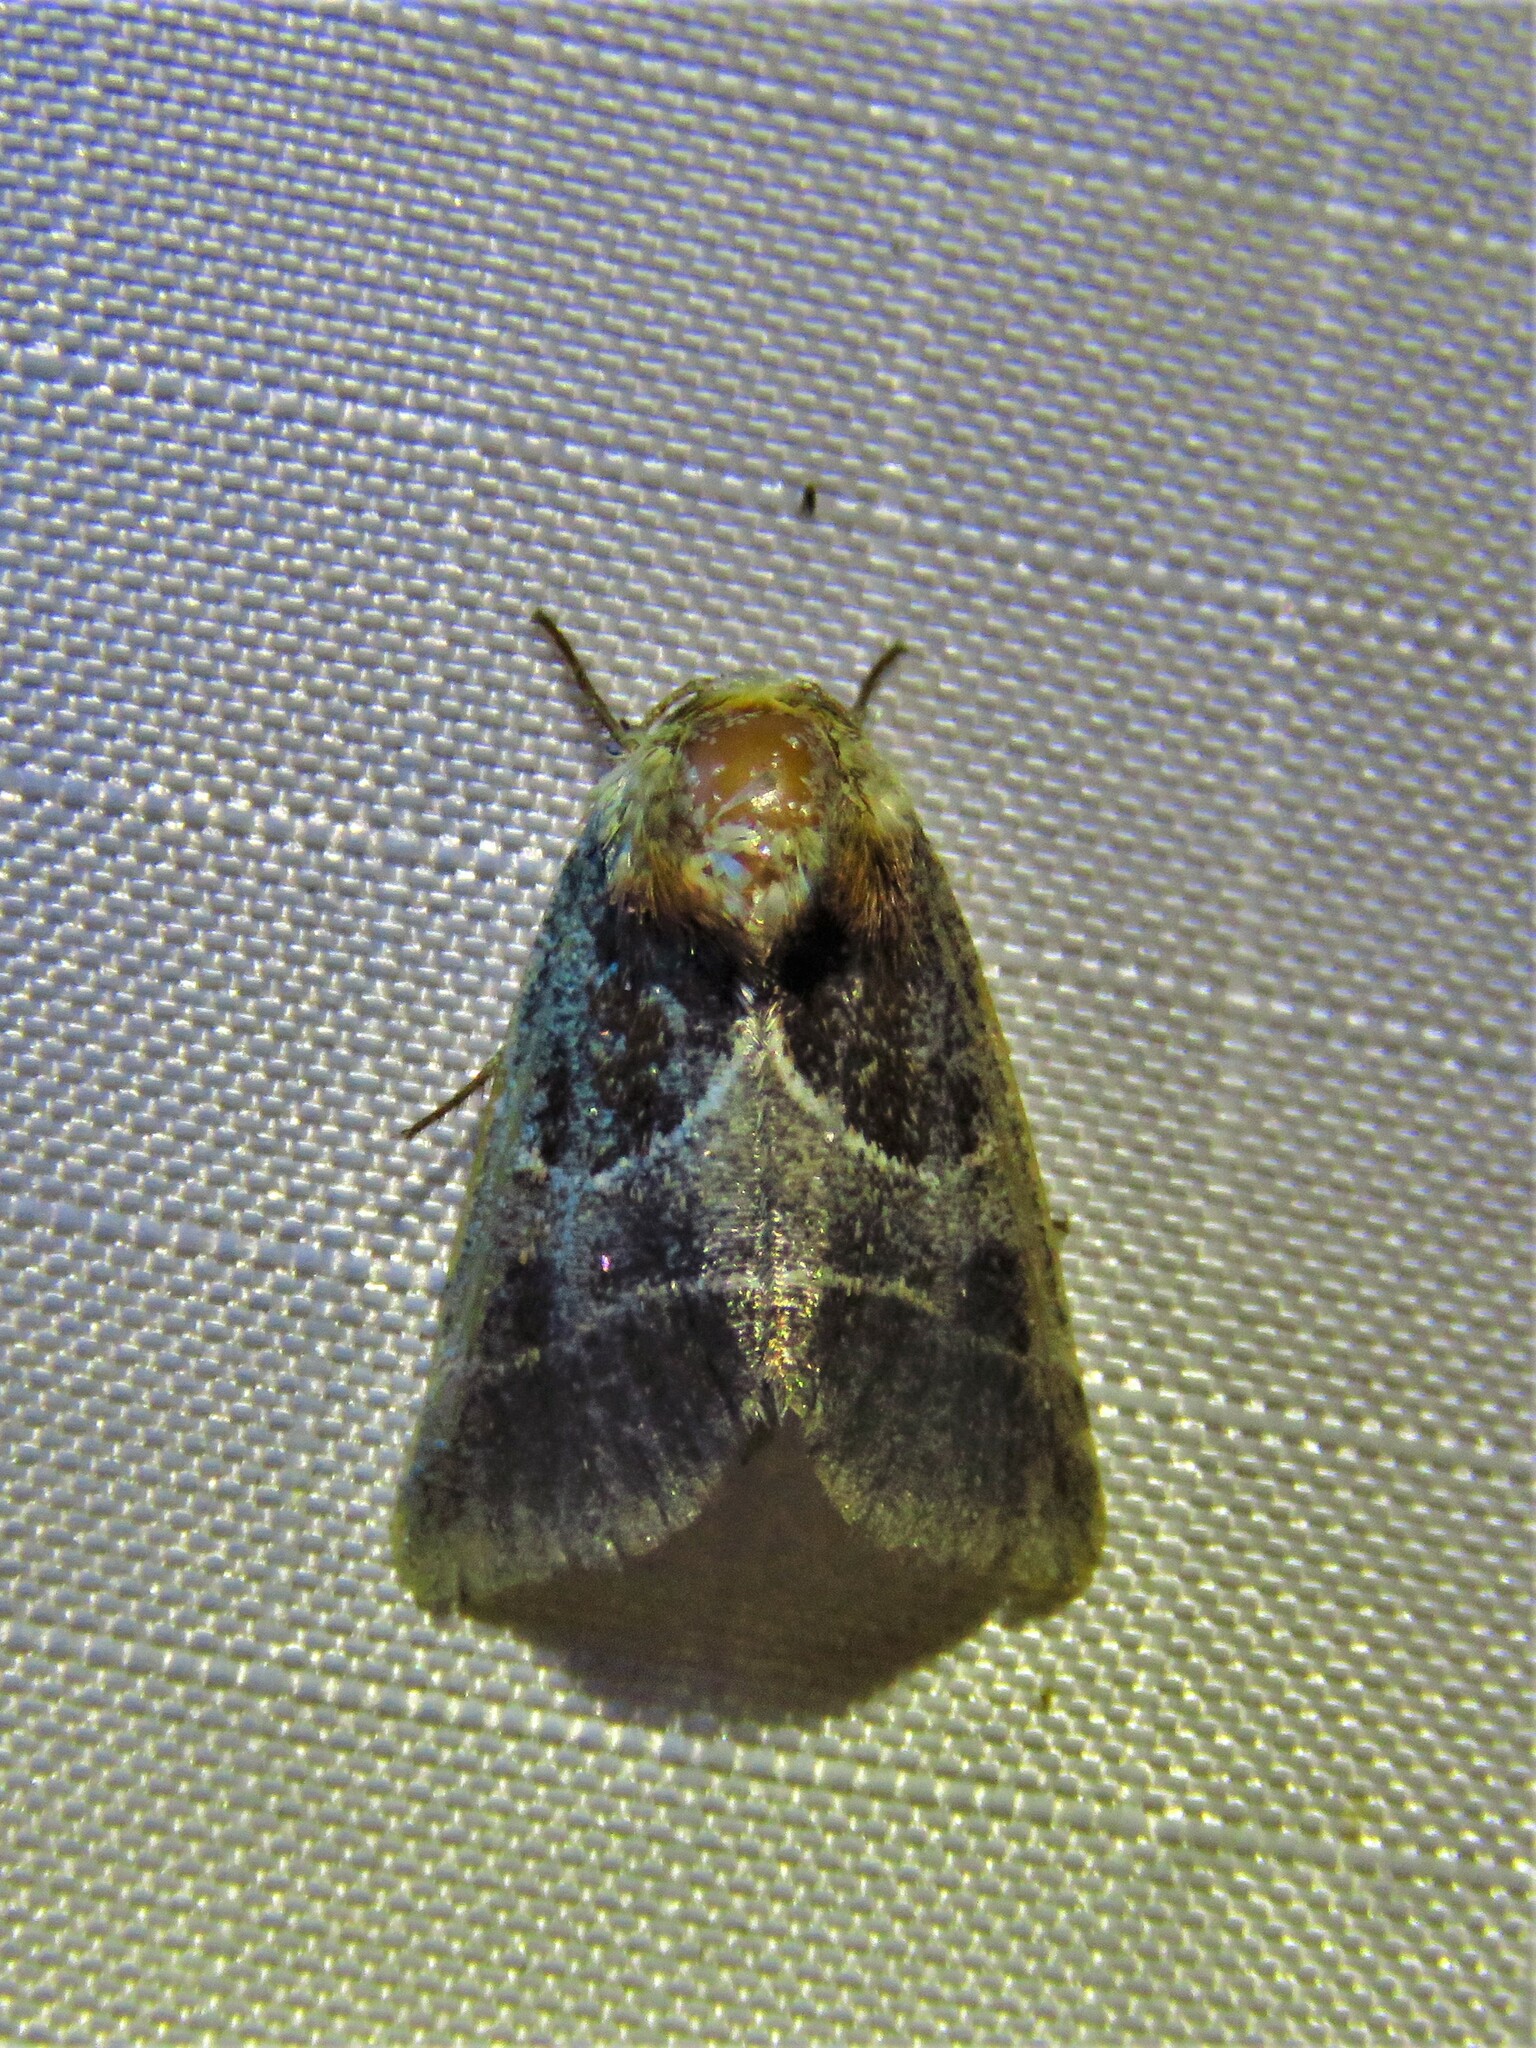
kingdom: Animalia
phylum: Arthropoda
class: Insecta
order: Lepidoptera
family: Noctuidae
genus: Schinia
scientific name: Schinia arcigera
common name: Arcigera flower moth
